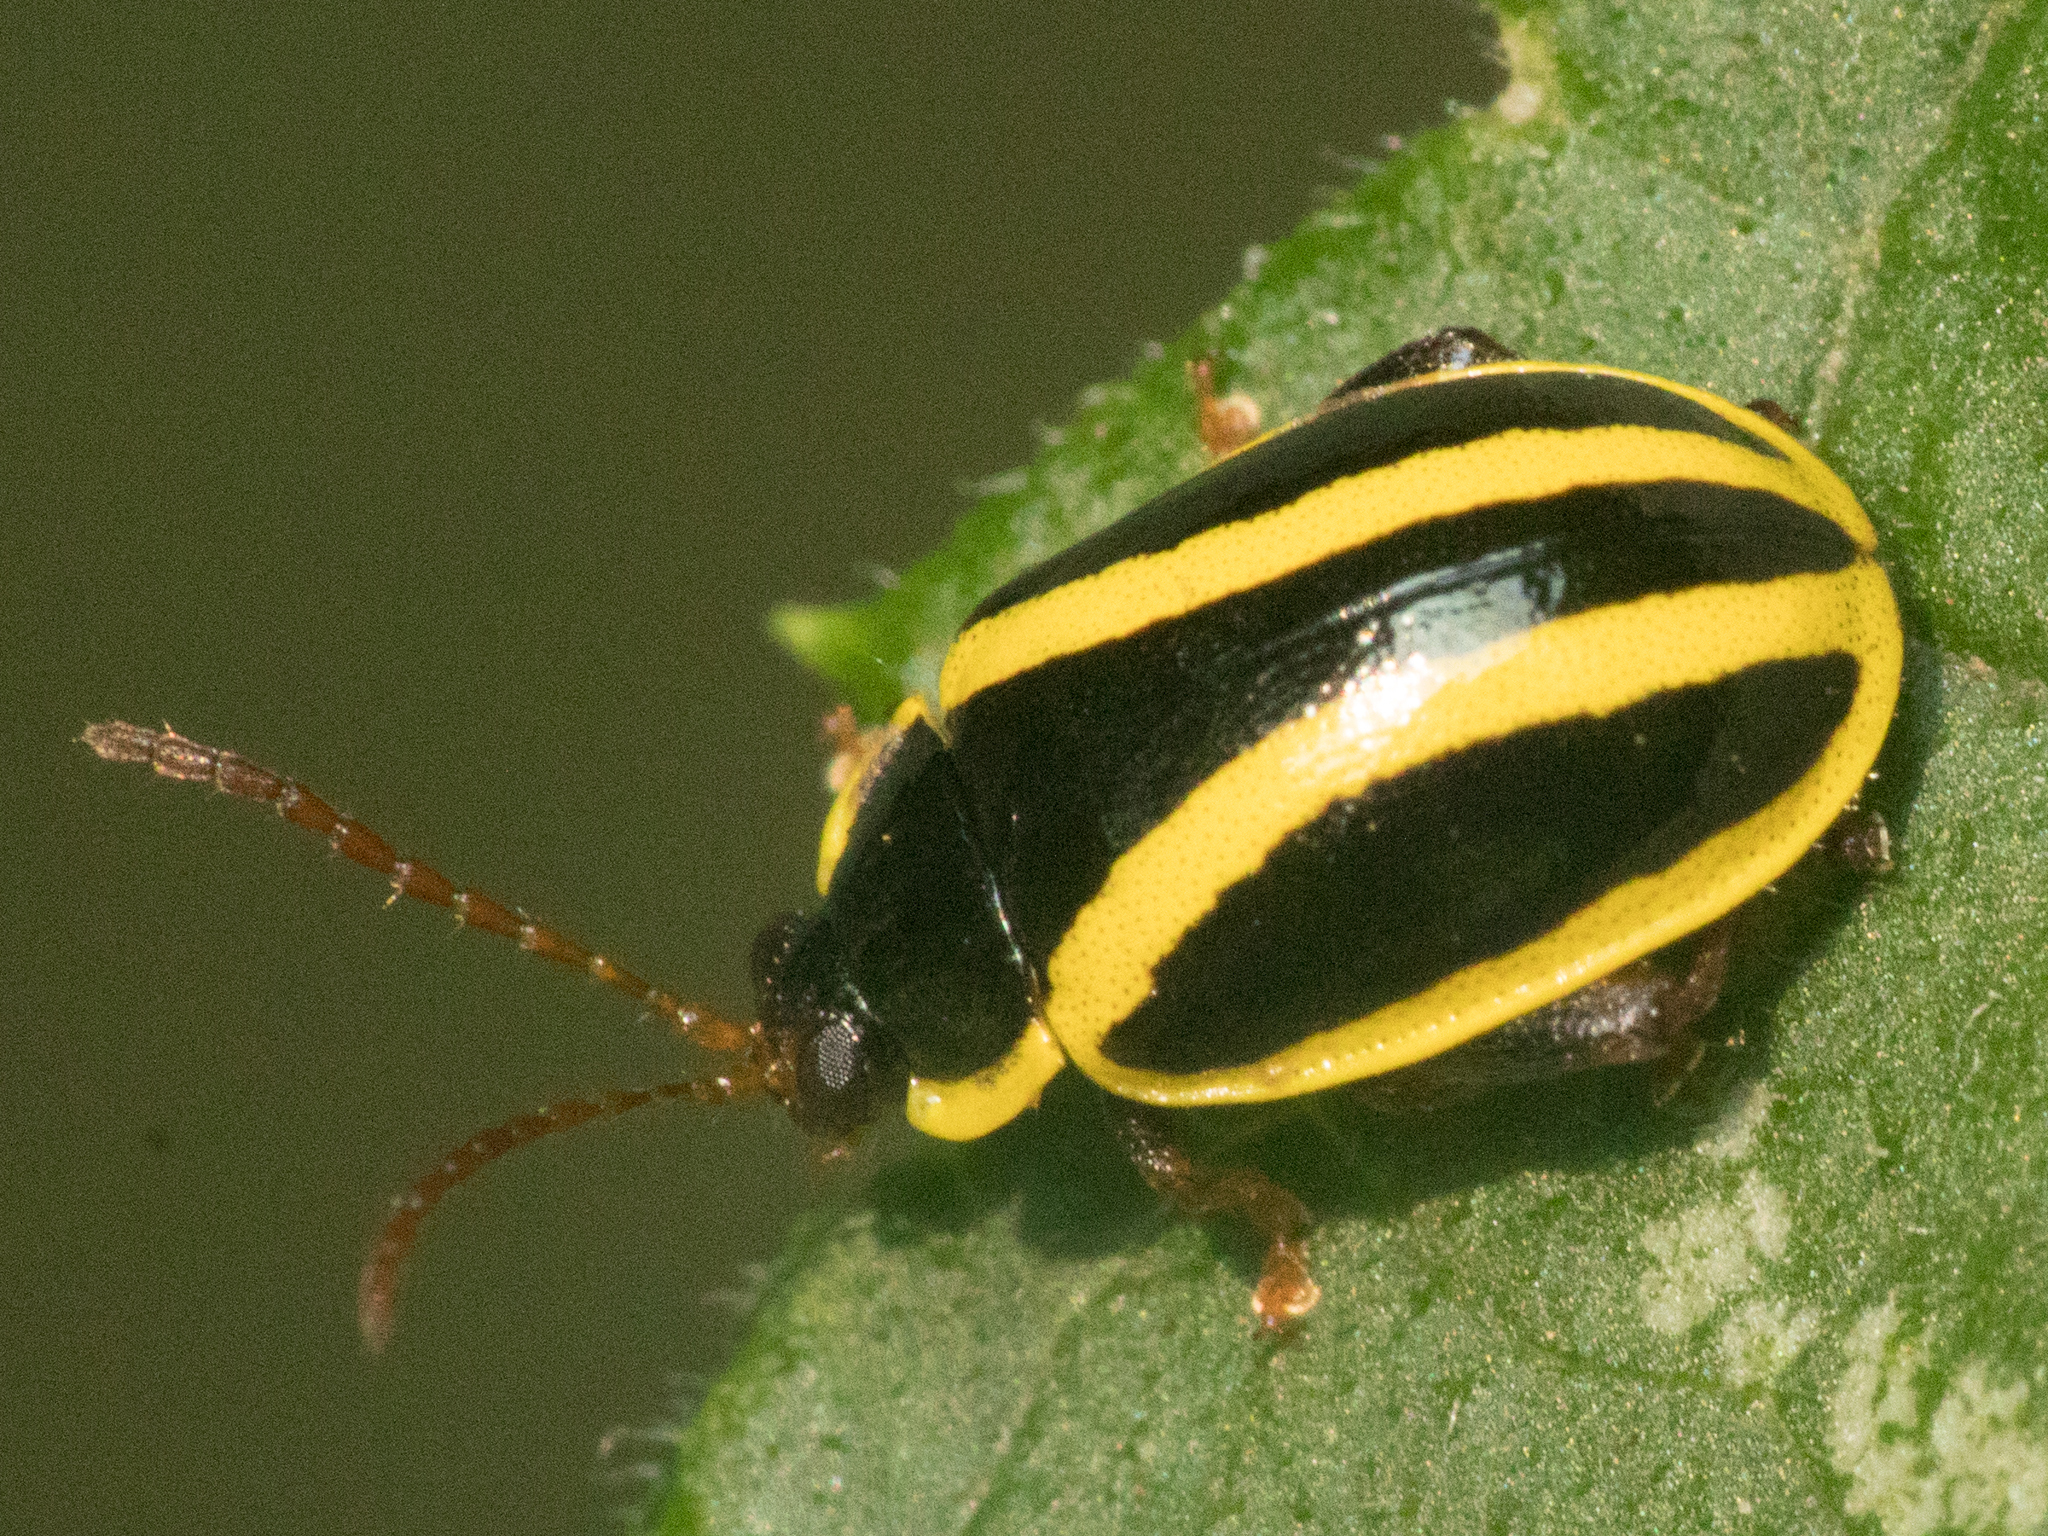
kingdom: Animalia
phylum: Arthropoda
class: Insecta
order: Coleoptera
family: Chrysomelidae
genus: Alagoasa
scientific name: Alagoasa
